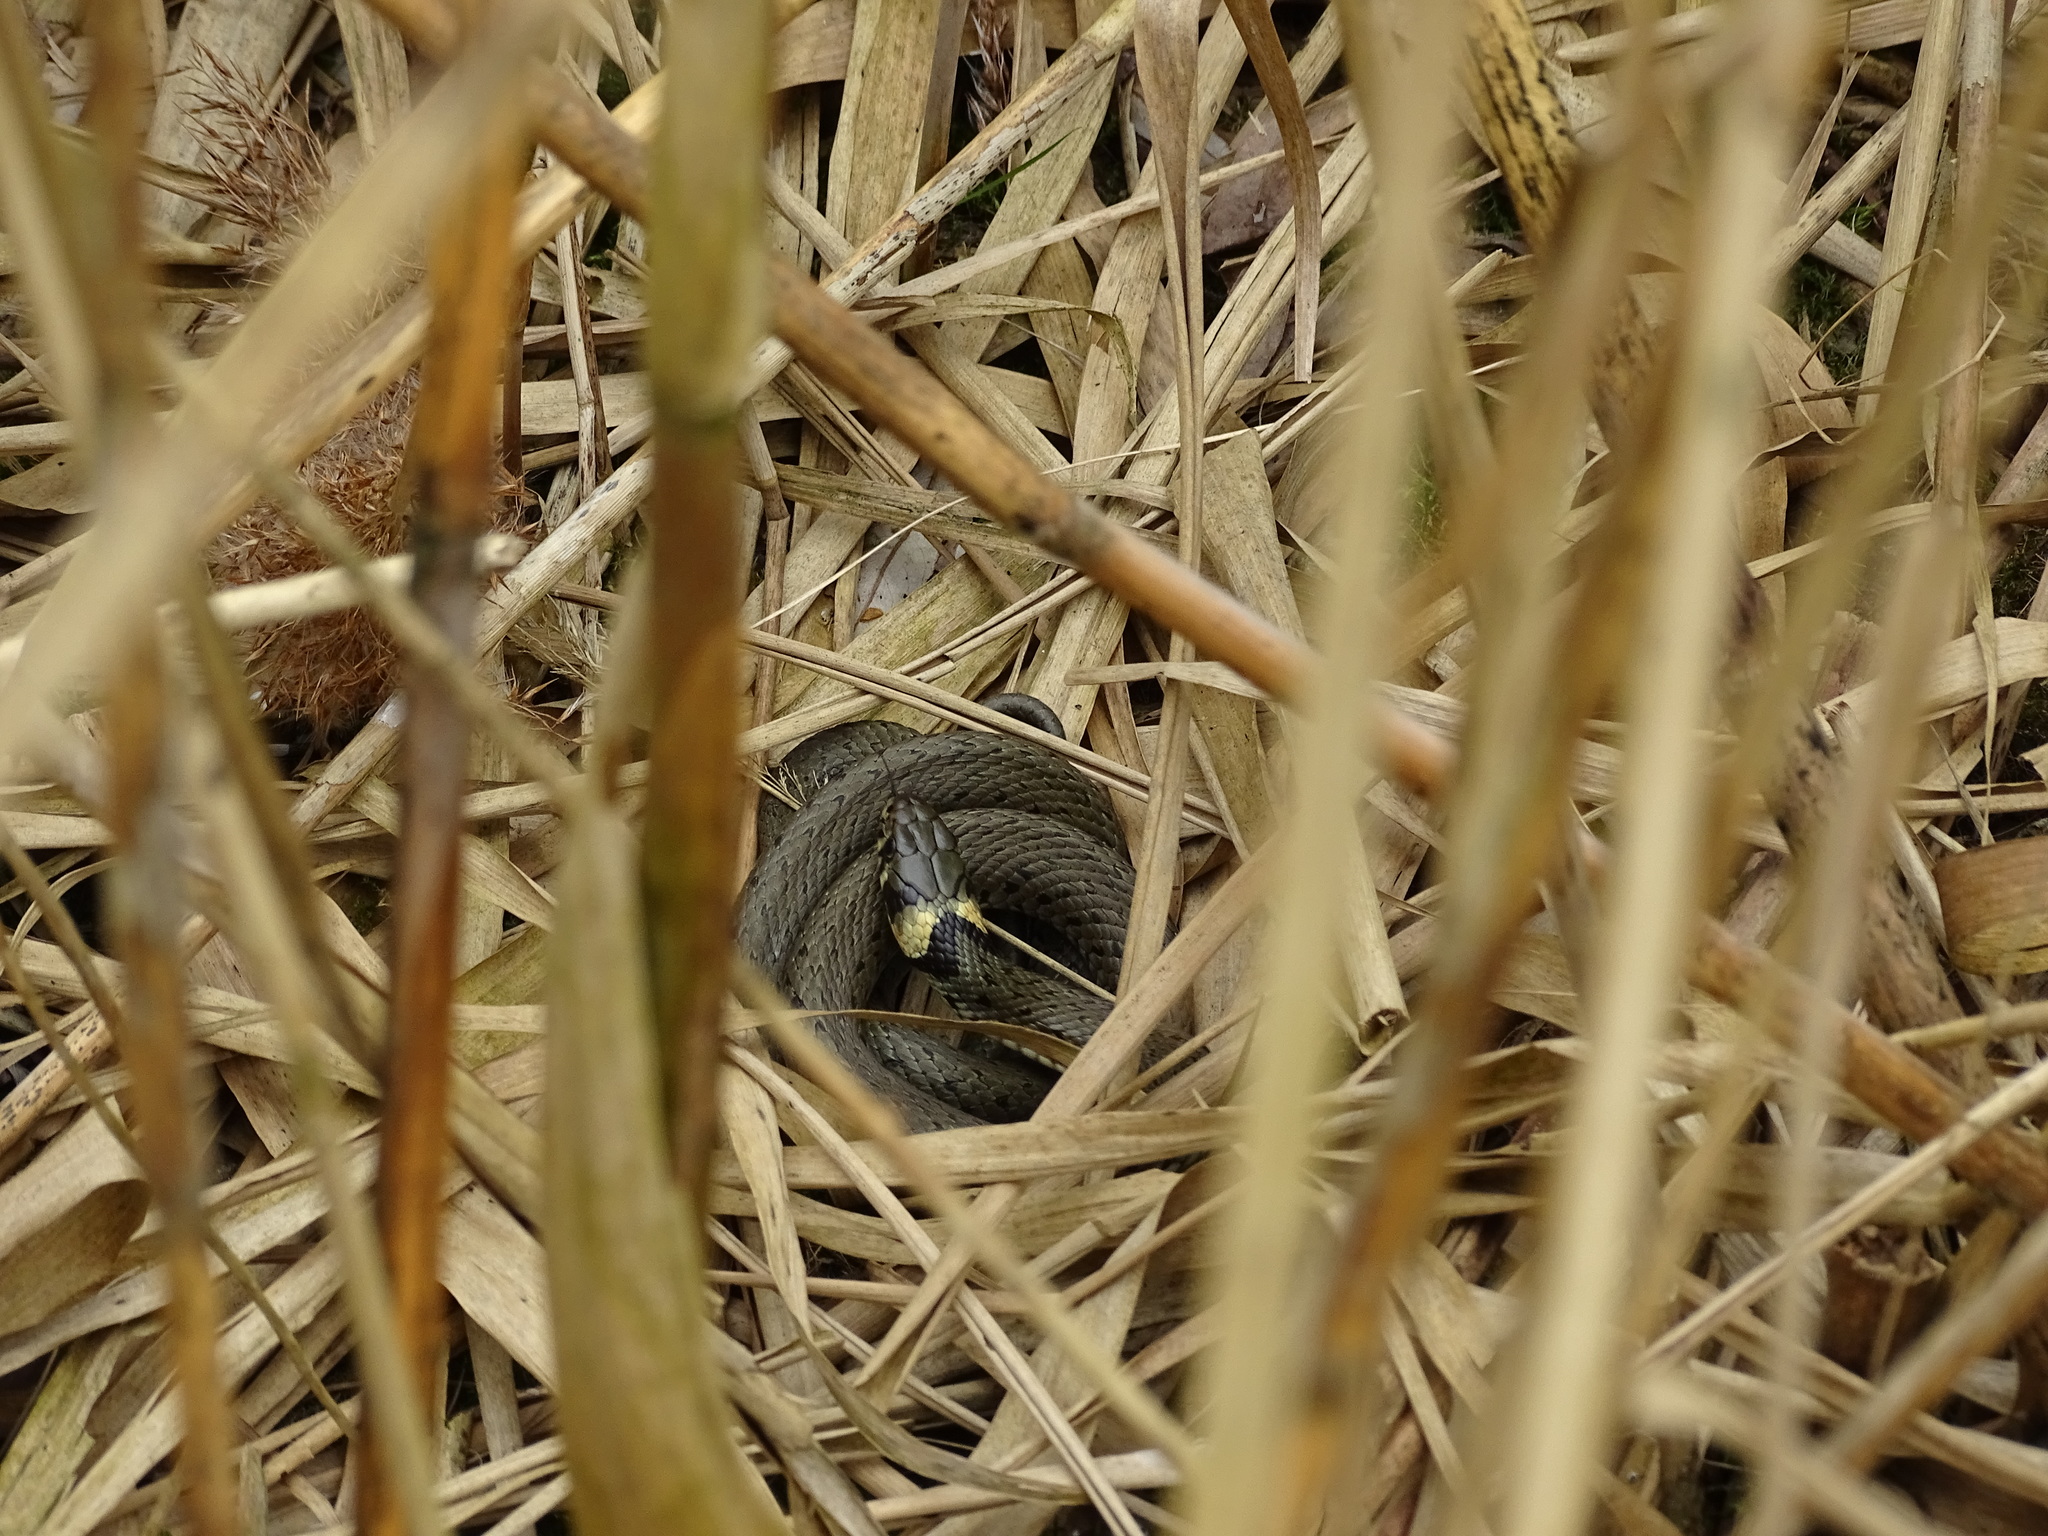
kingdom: Animalia
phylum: Chordata
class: Squamata
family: Colubridae
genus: Natrix
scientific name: Natrix natrix
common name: Grass snake
